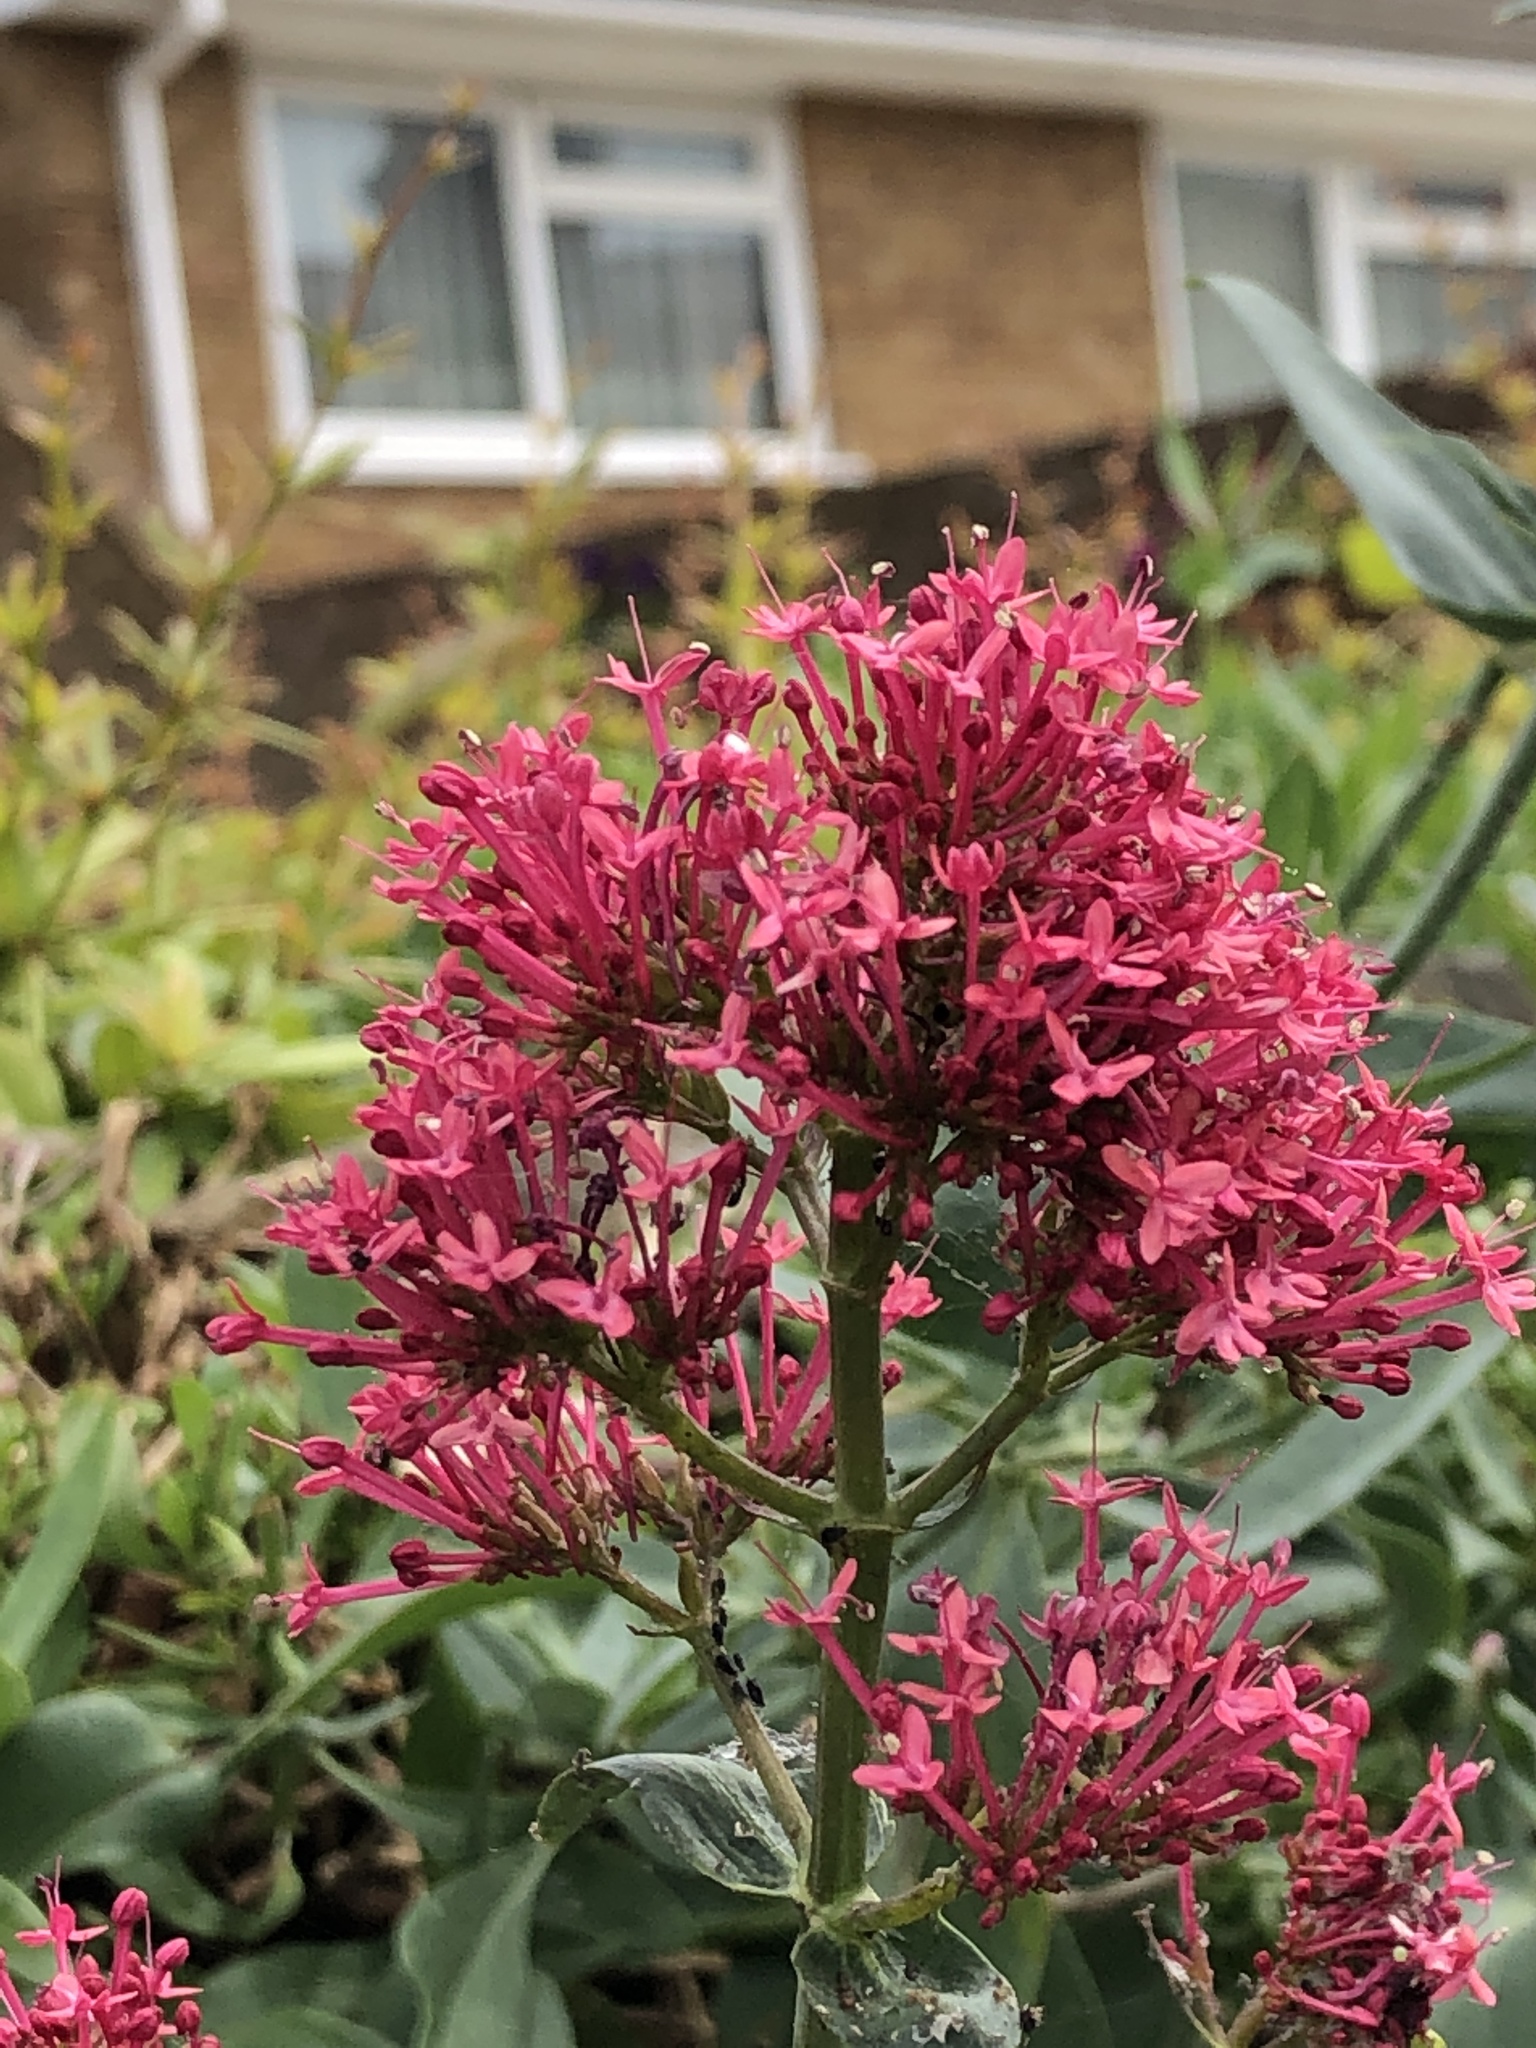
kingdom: Plantae
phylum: Tracheophyta
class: Magnoliopsida
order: Dipsacales
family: Caprifoliaceae
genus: Centranthus
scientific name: Centranthus ruber
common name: Red valerian
